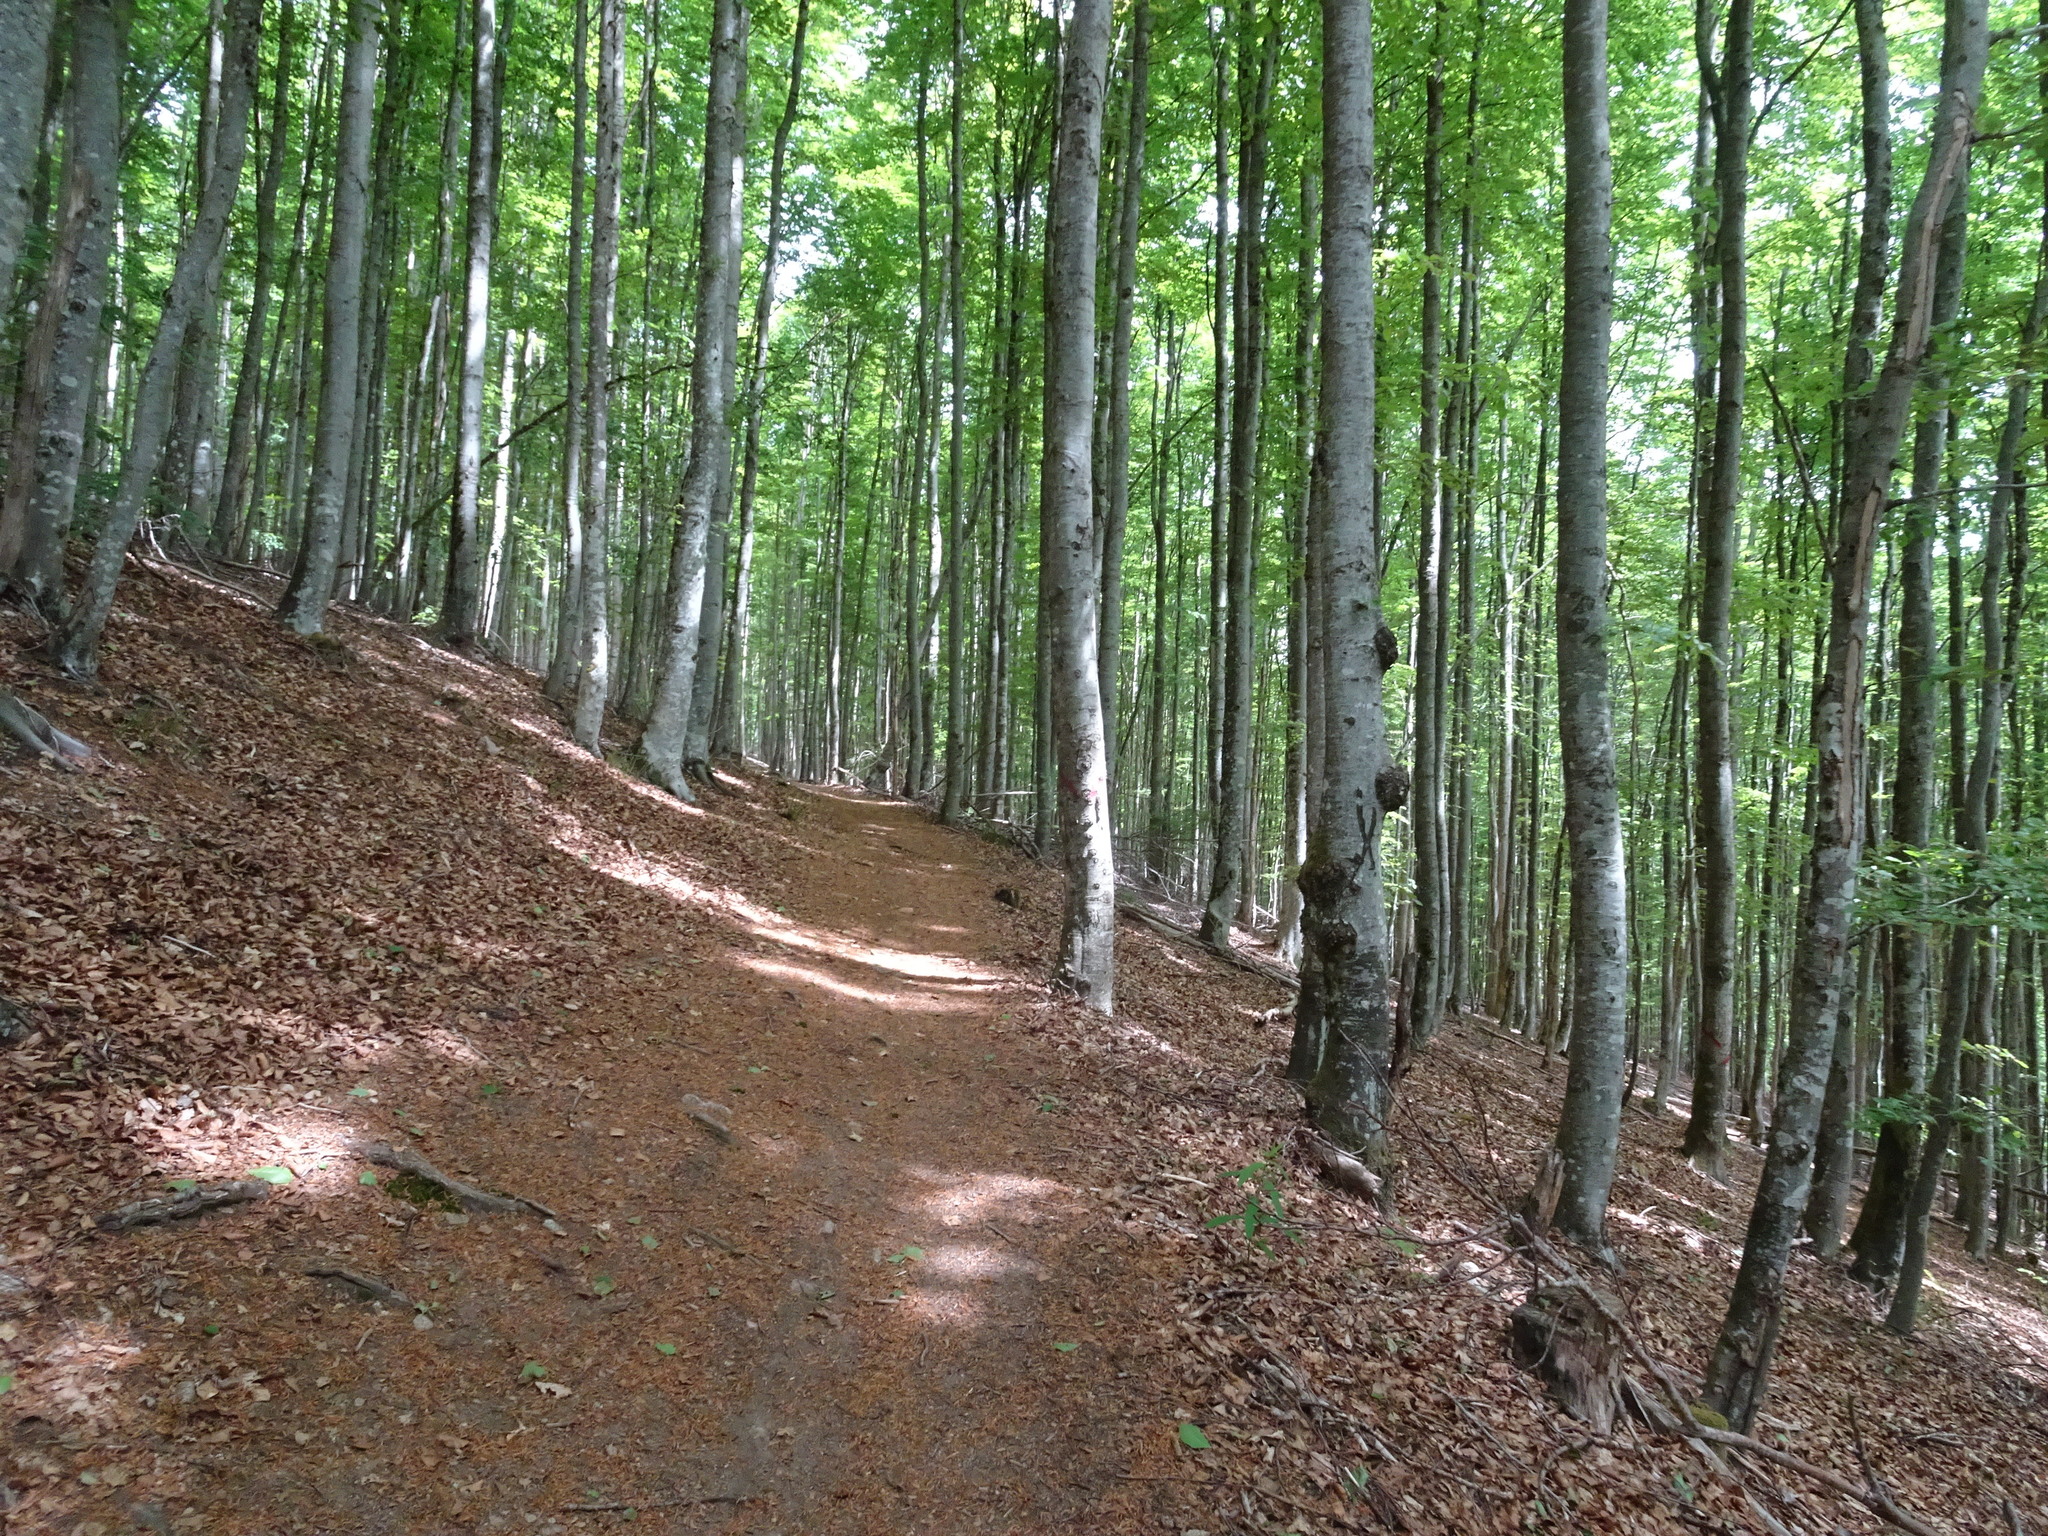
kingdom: Plantae
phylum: Tracheophyta
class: Magnoliopsida
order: Fagales
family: Fagaceae
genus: Fagus
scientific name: Fagus sylvatica
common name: Beech
